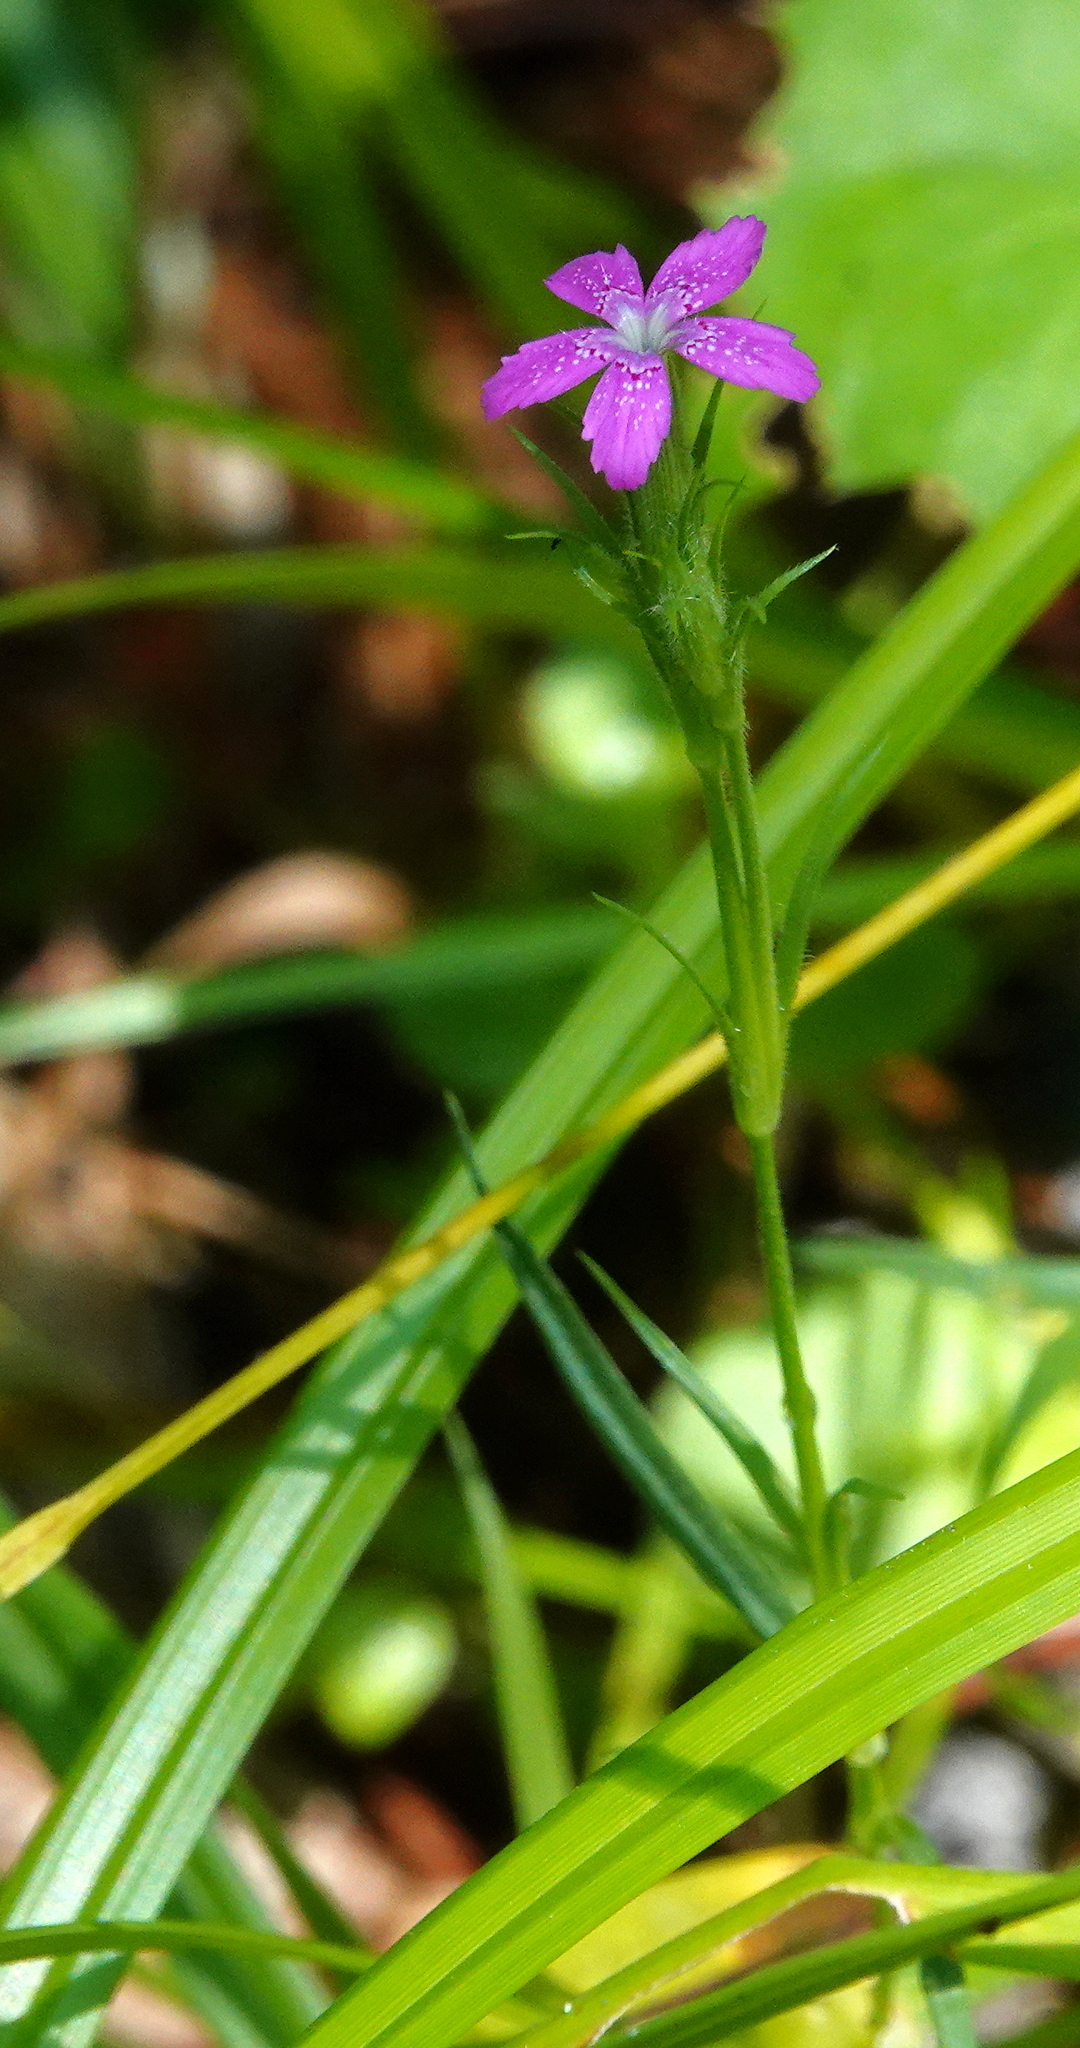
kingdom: Plantae
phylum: Tracheophyta
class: Magnoliopsida
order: Caryophyllales
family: Caryophyllaceae
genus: Dianthus
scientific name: Dianthus armeria
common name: Deptford pink
